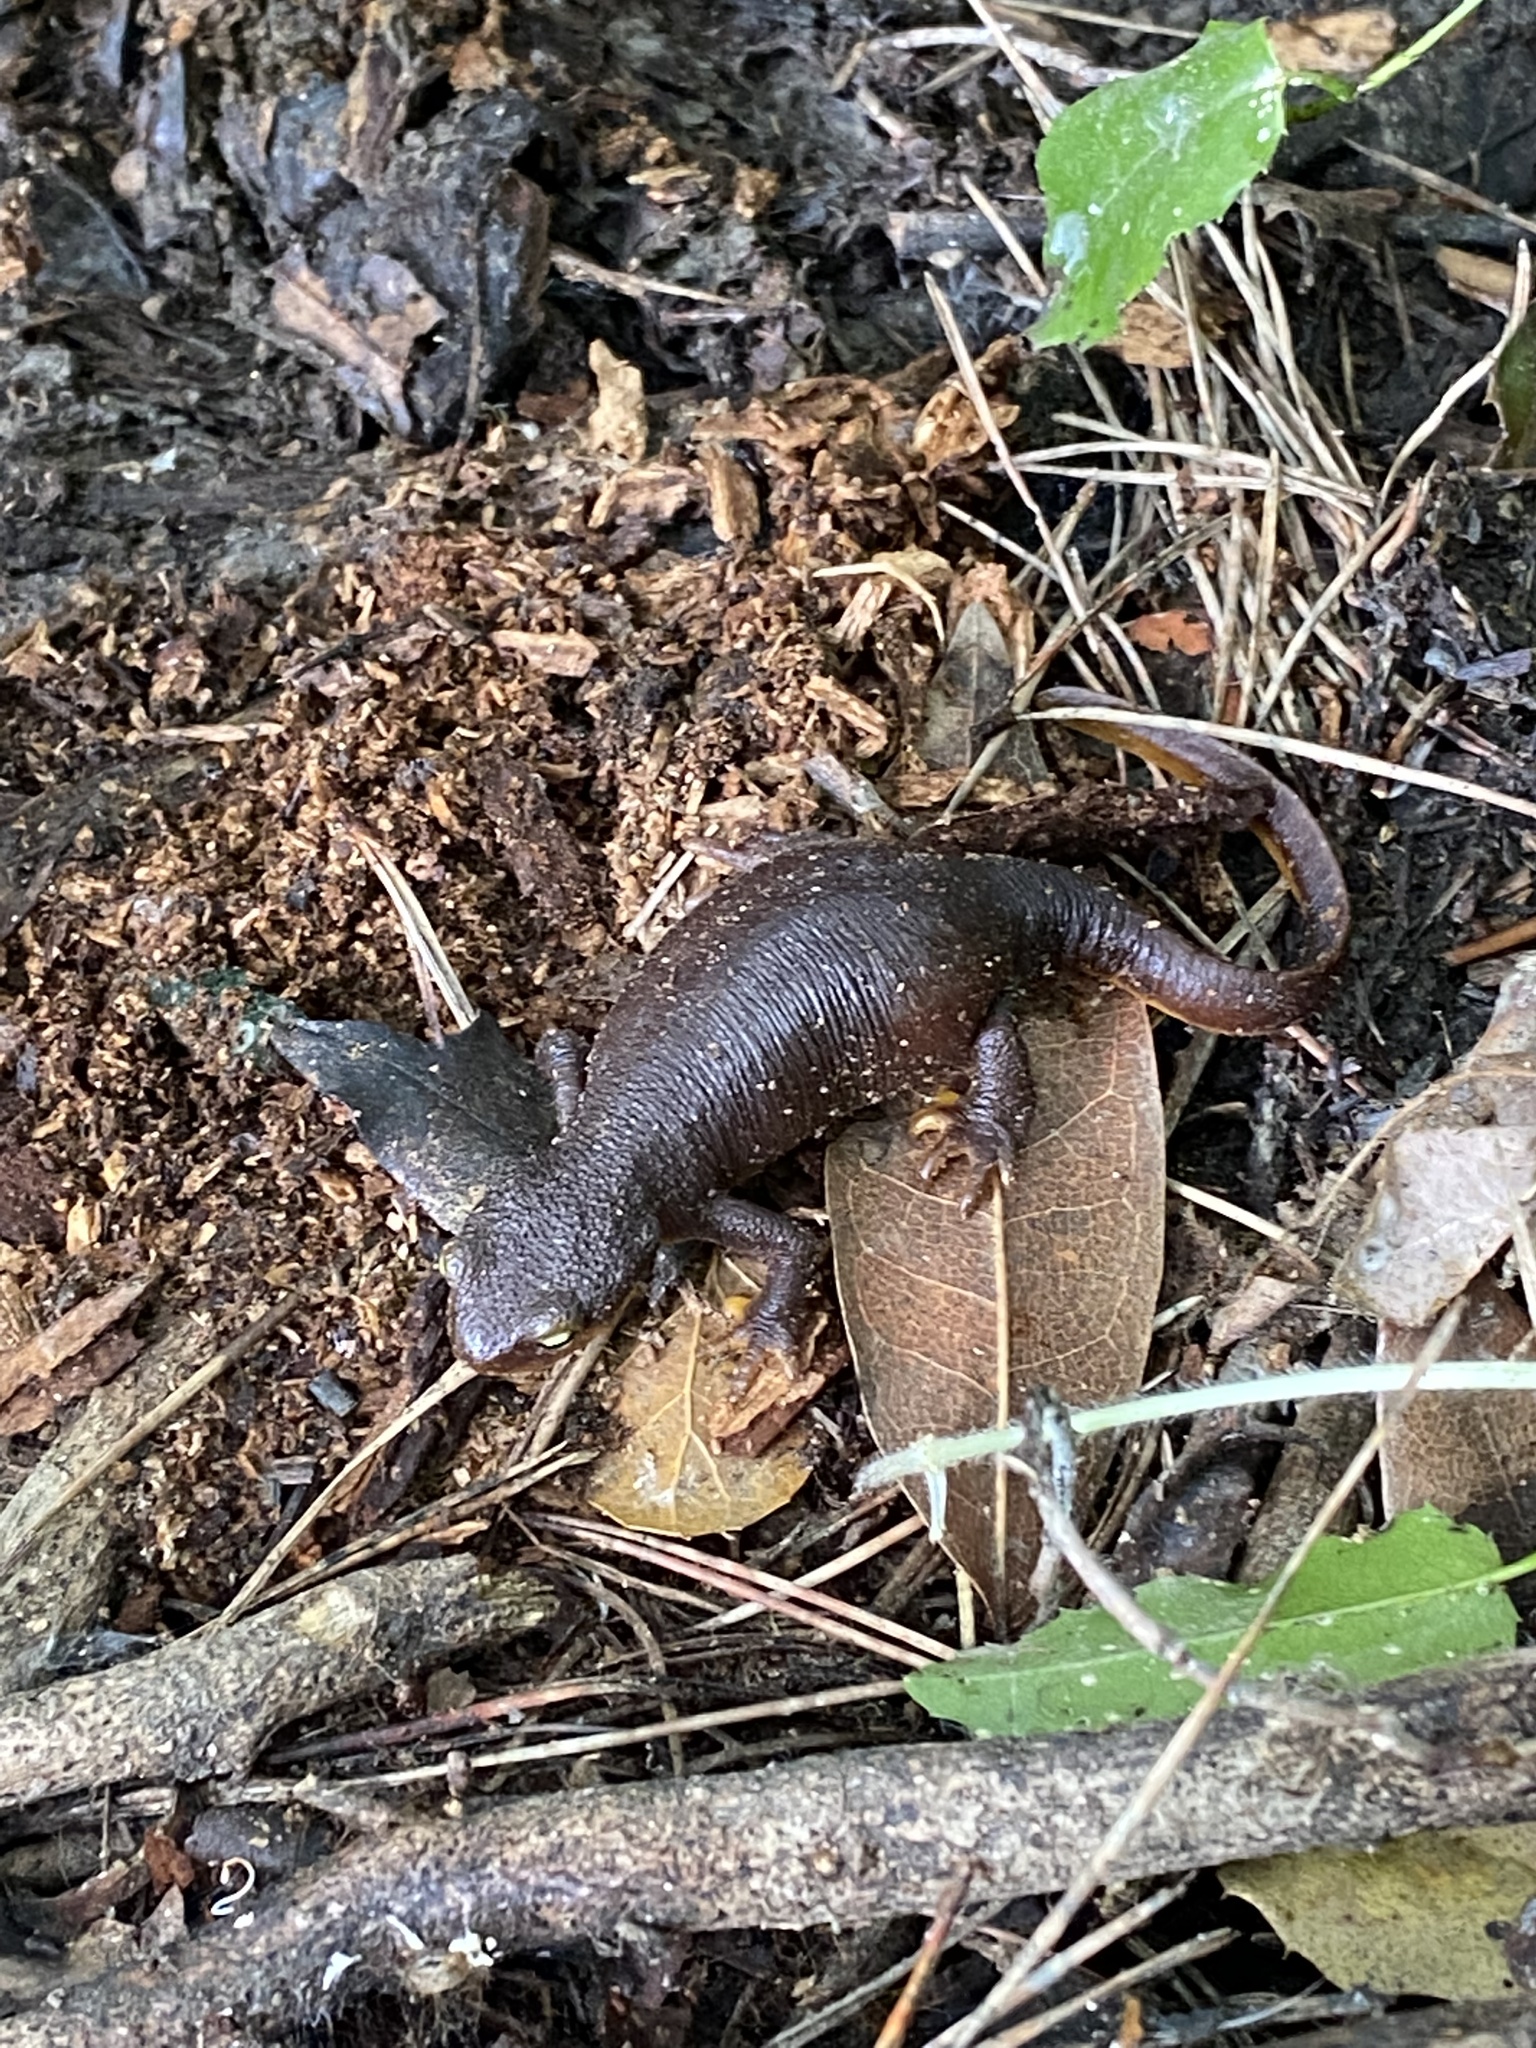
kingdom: Animalia
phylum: Chordata
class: Amphibia
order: Caudata
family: Salamandridae
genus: Taricha
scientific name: Taricha torosa
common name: California newt
